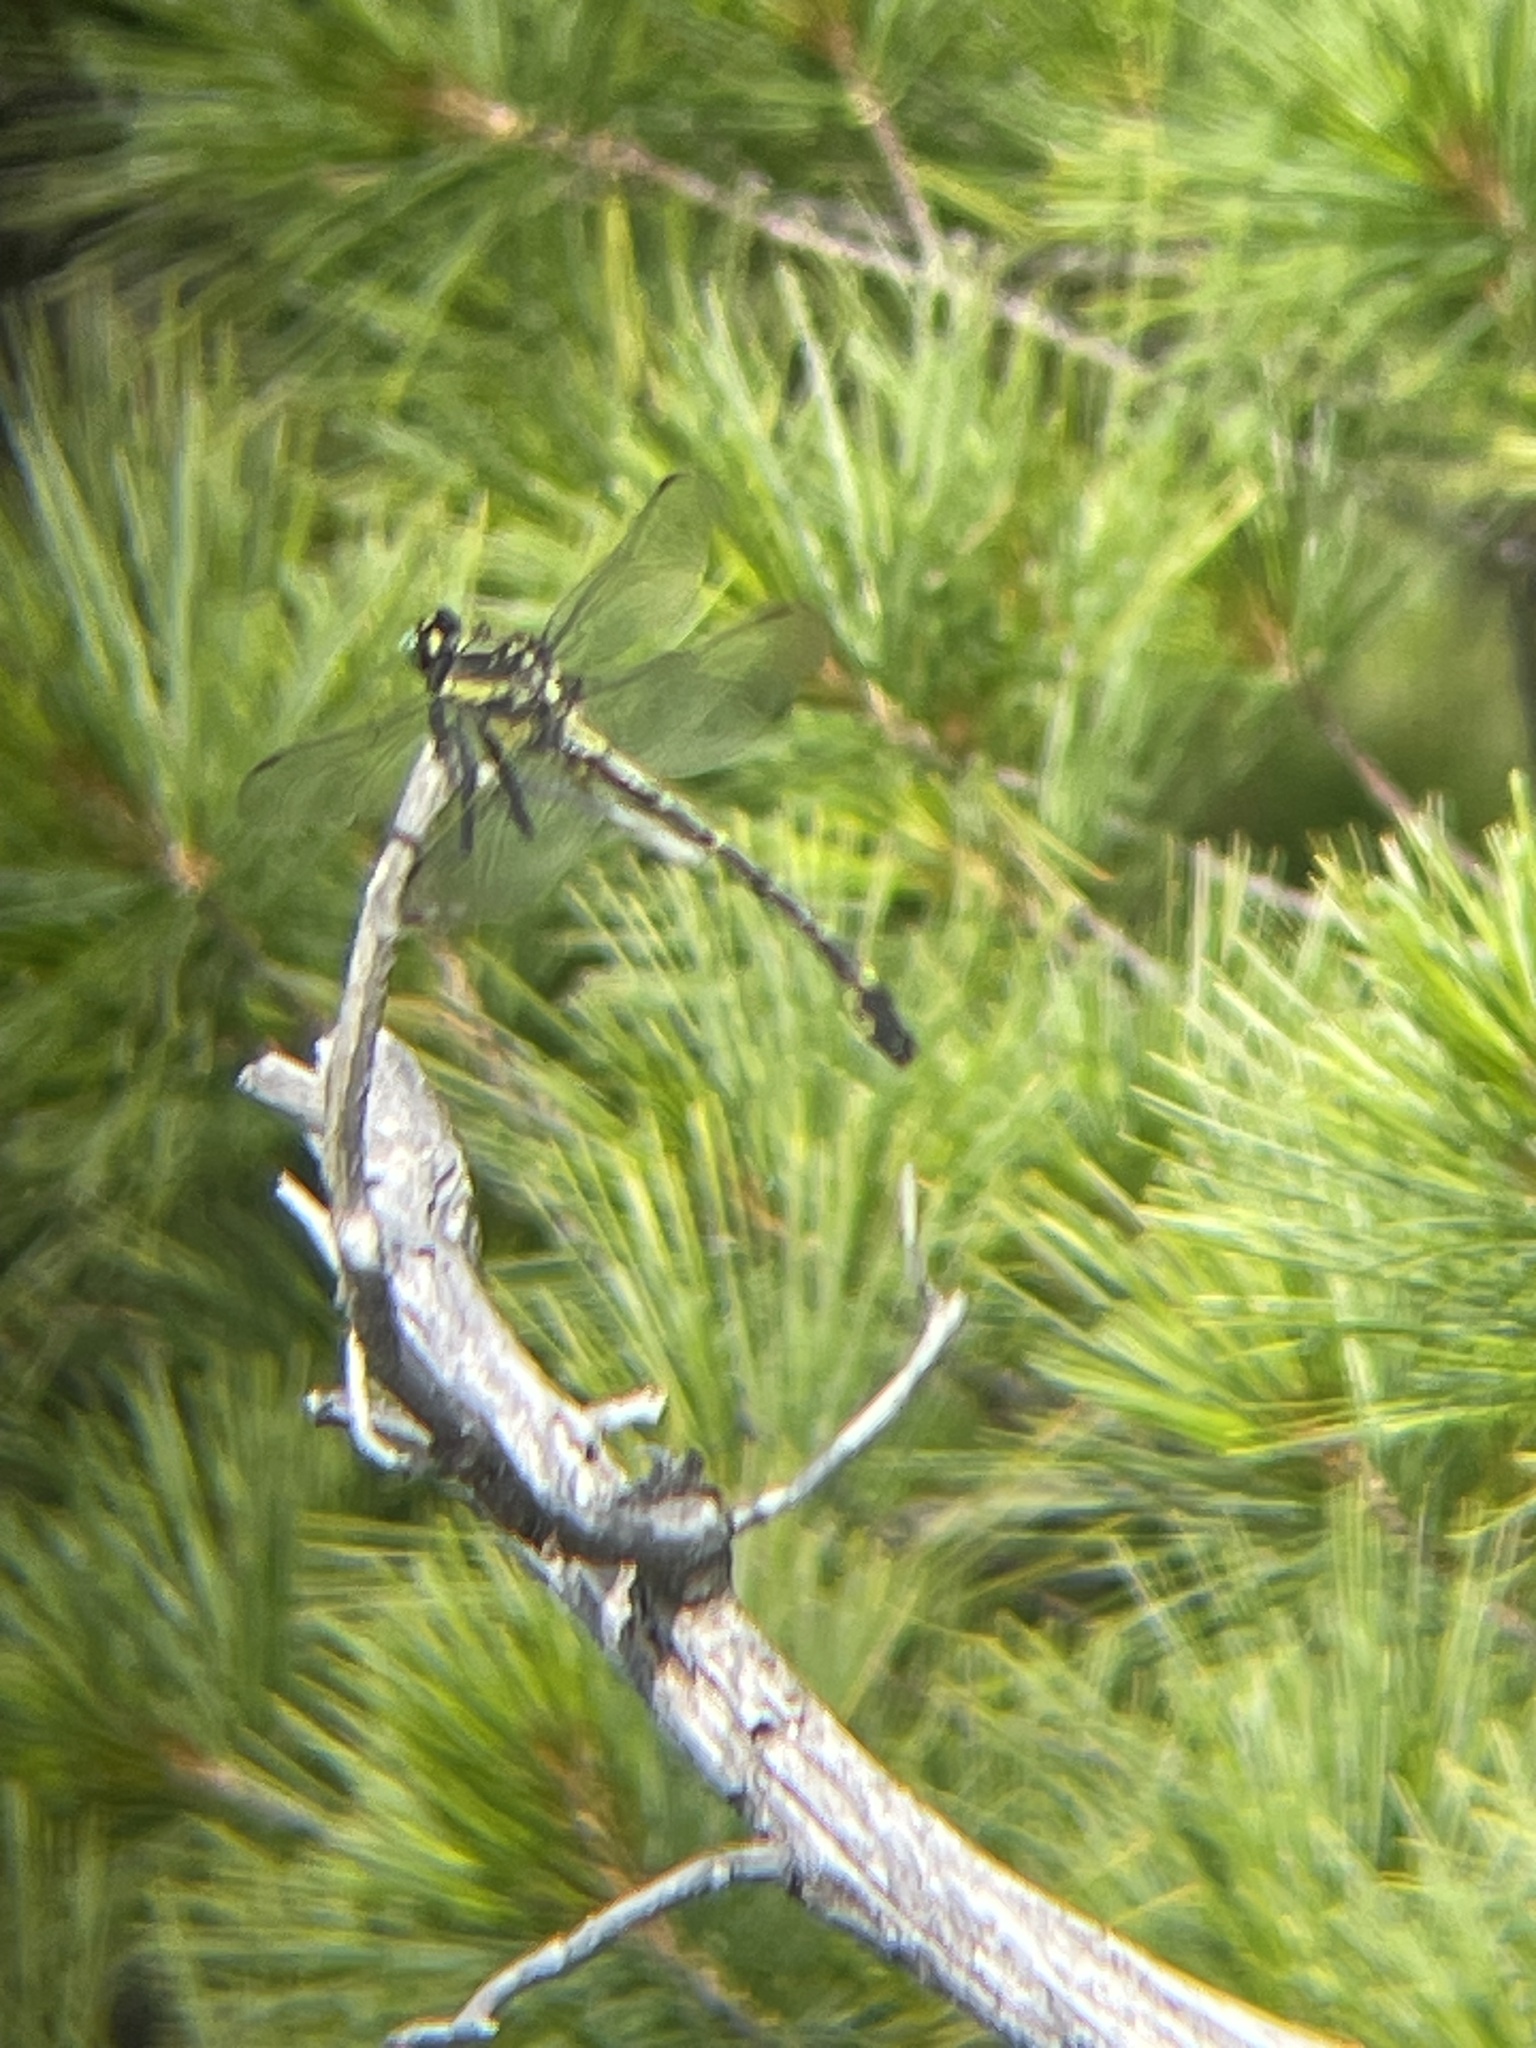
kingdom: Animalia
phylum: Arthropoda
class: Insecta
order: Odonata
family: Gomphidae
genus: Hagenius
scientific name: Hagenius brevistylus
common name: Dragonhunter
